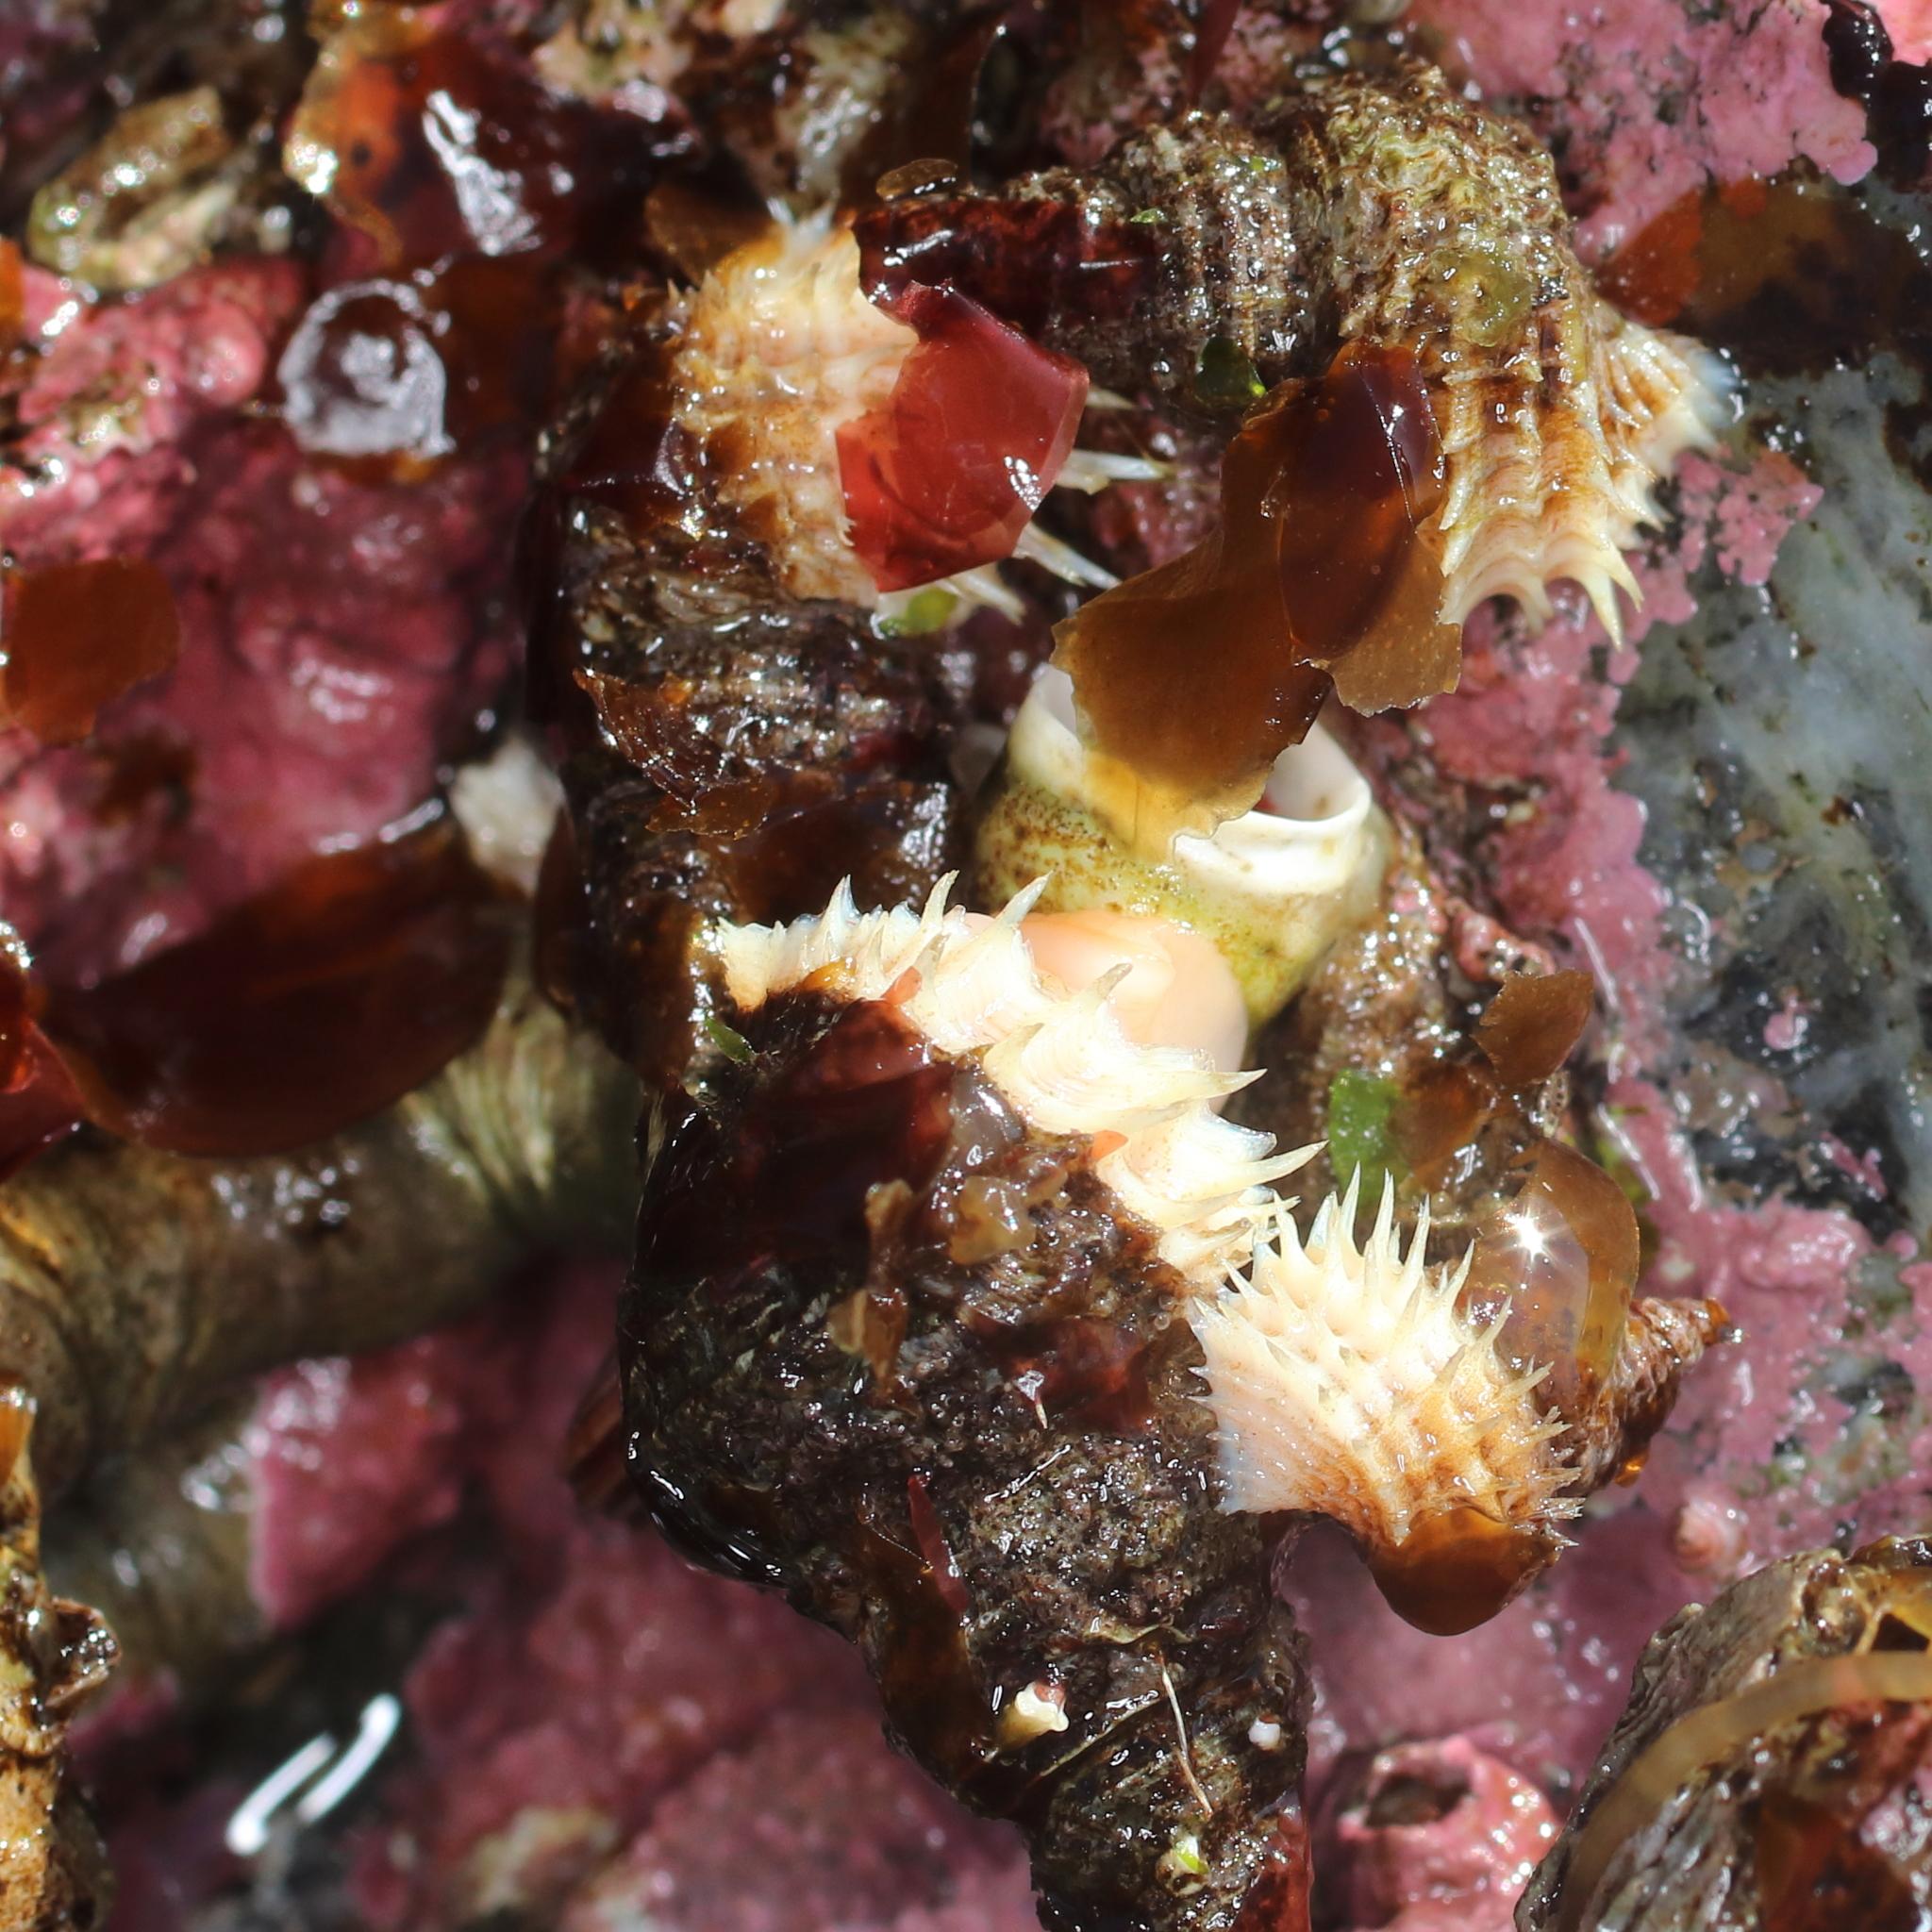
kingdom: Animalia
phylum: Mollusca
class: Gastropoda
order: Littorinimorpha
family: Capulidae
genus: Trichotropis
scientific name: Trichotropis cancellata
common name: Cancellate hairysnail
